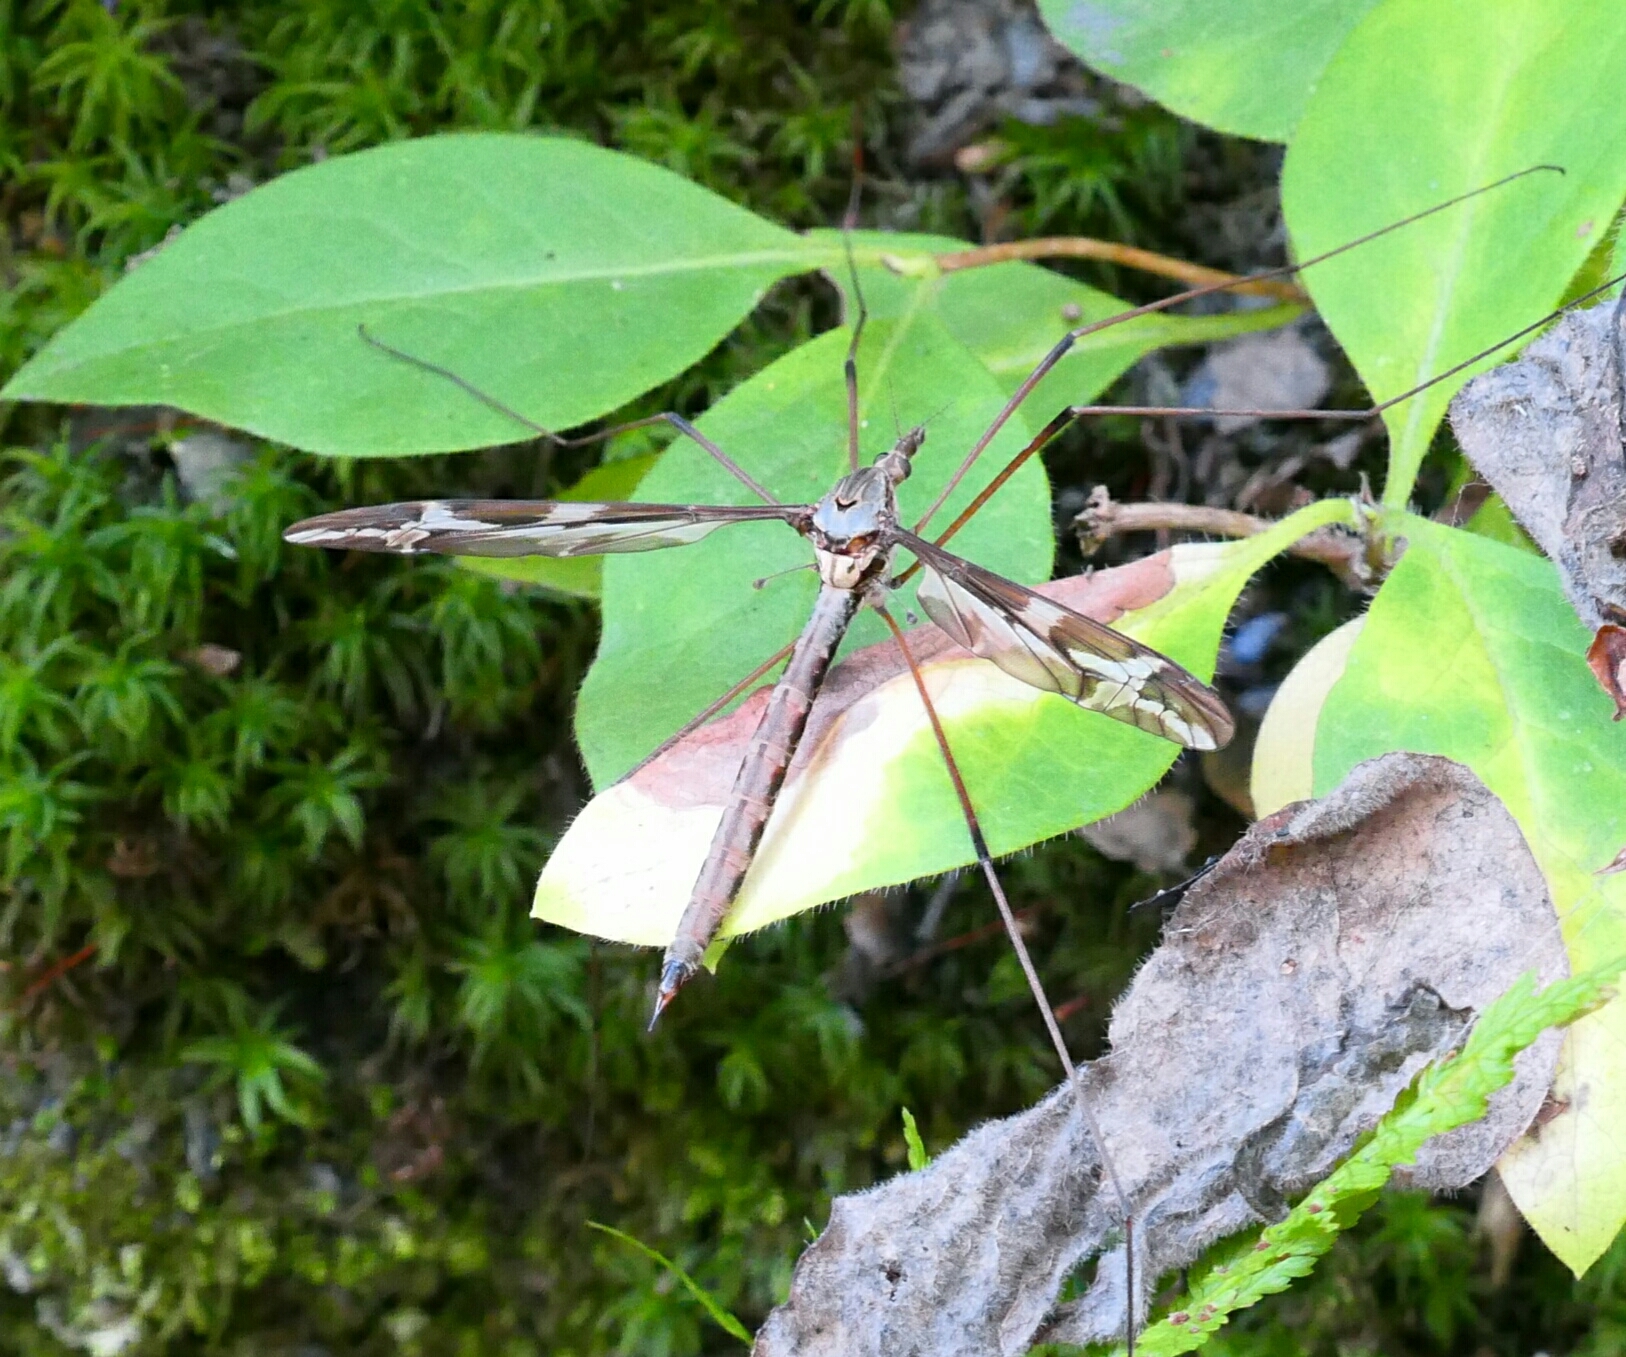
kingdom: Animalia
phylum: Arthropoda
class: Insecta
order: Diptera
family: Tipulidae
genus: Tipula
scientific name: Tipula maxima
